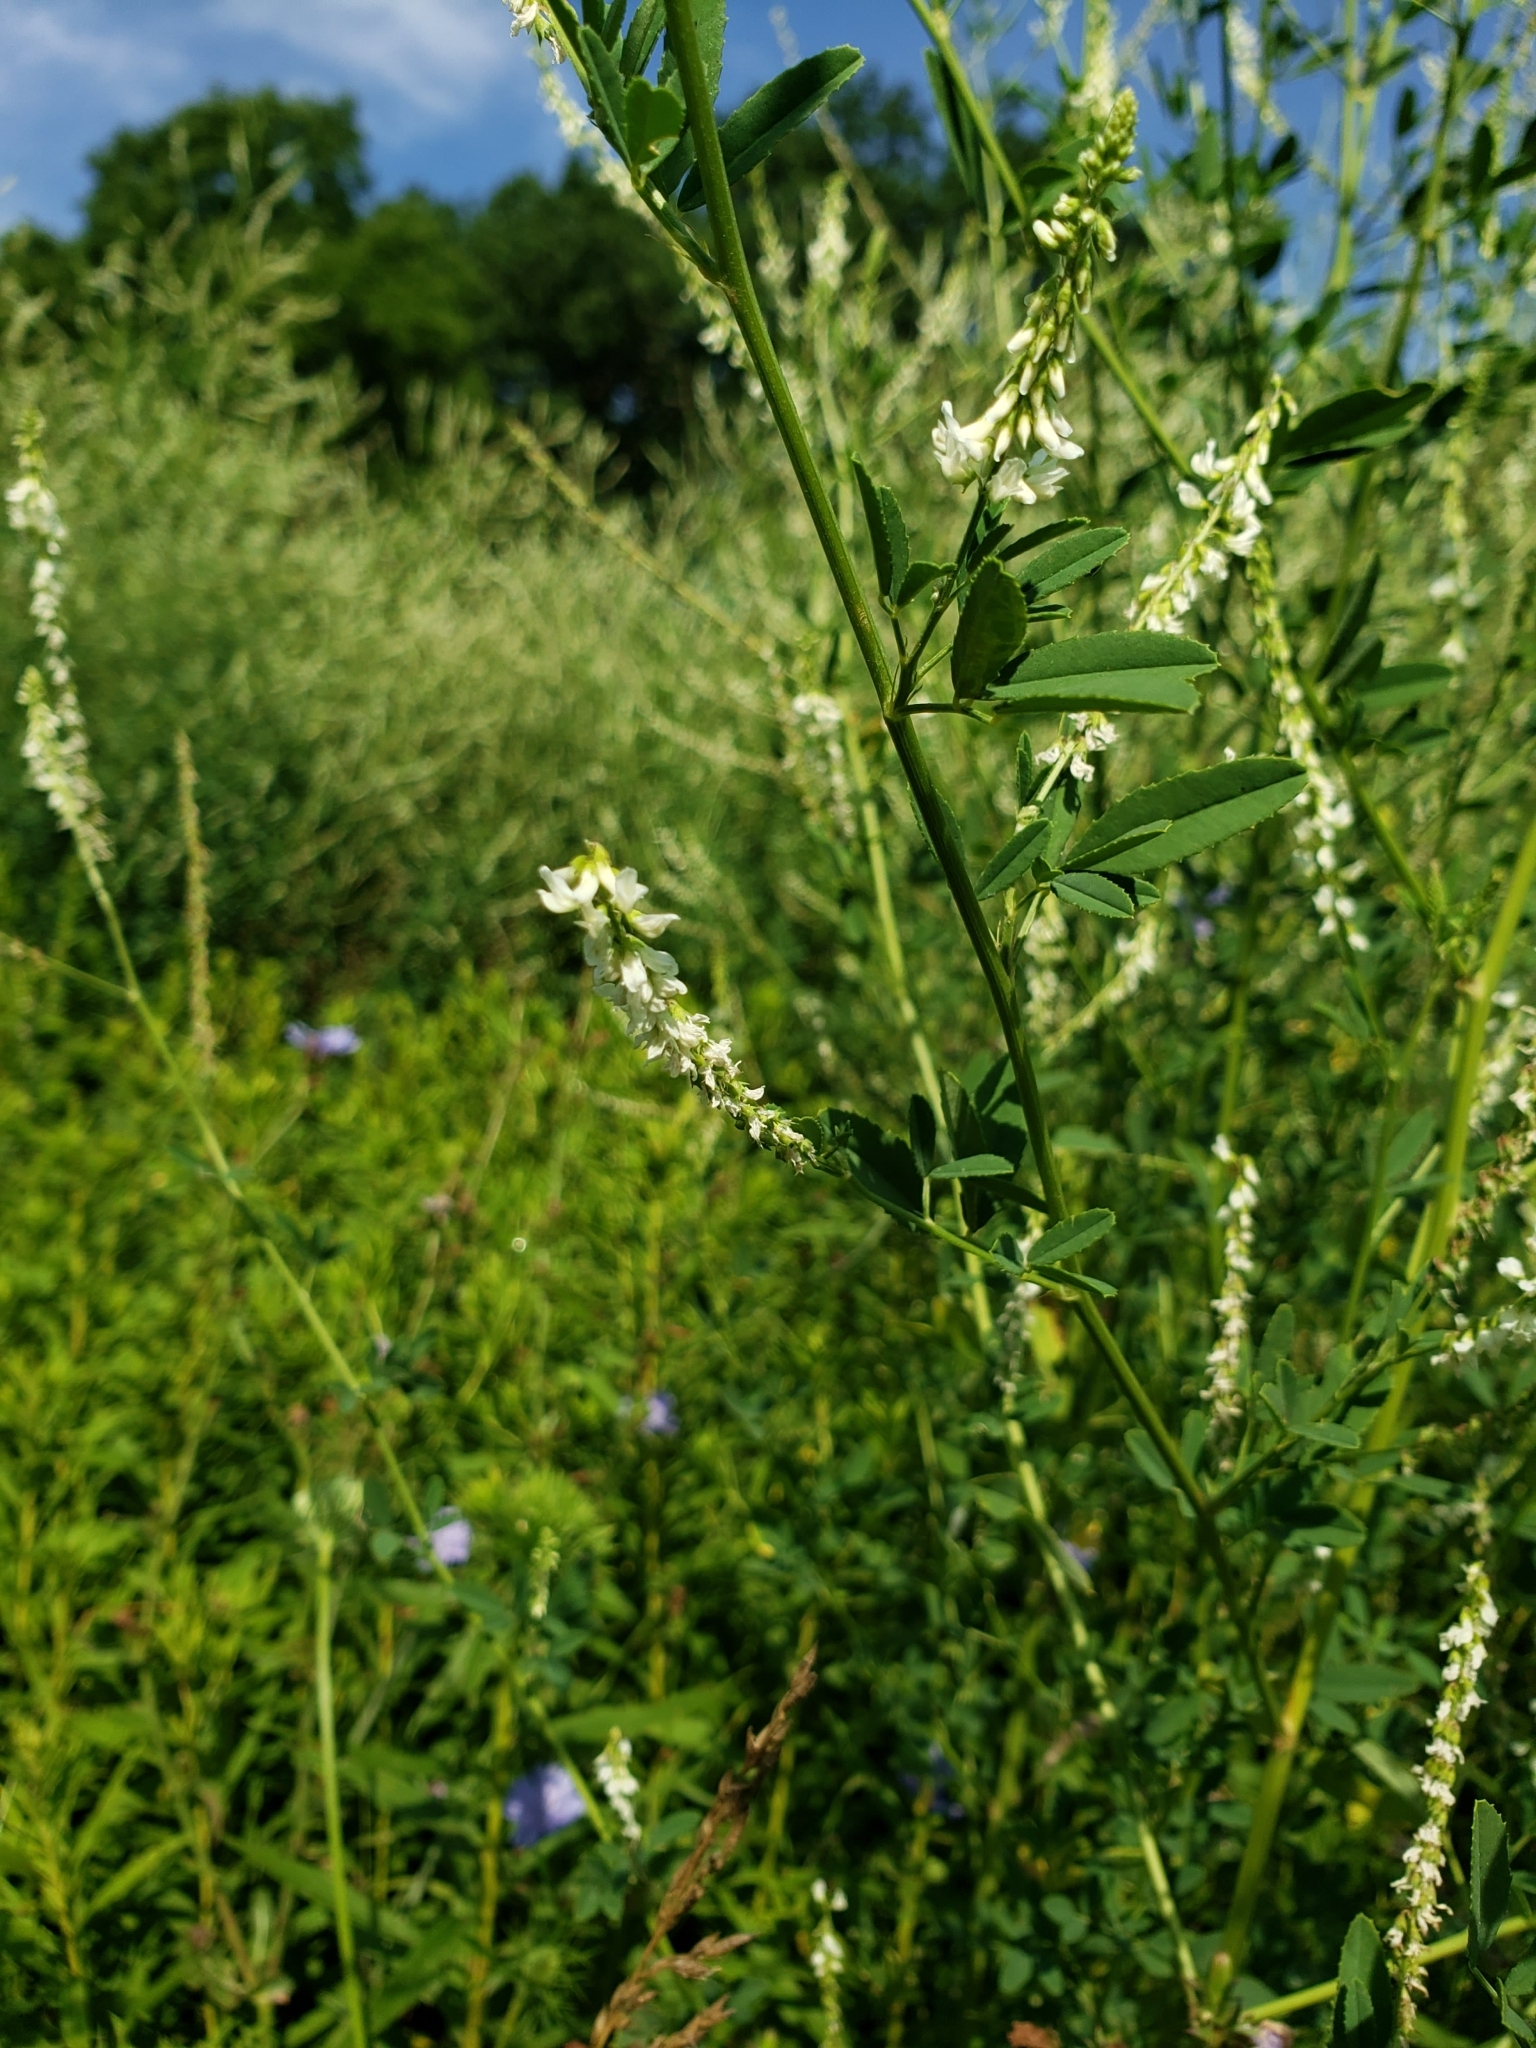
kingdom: Plantae
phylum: Tracheophyta
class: Magnoliopsida
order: Fabales
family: Fabaceae
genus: Melilotus
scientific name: Melilotus albus
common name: White melilot
